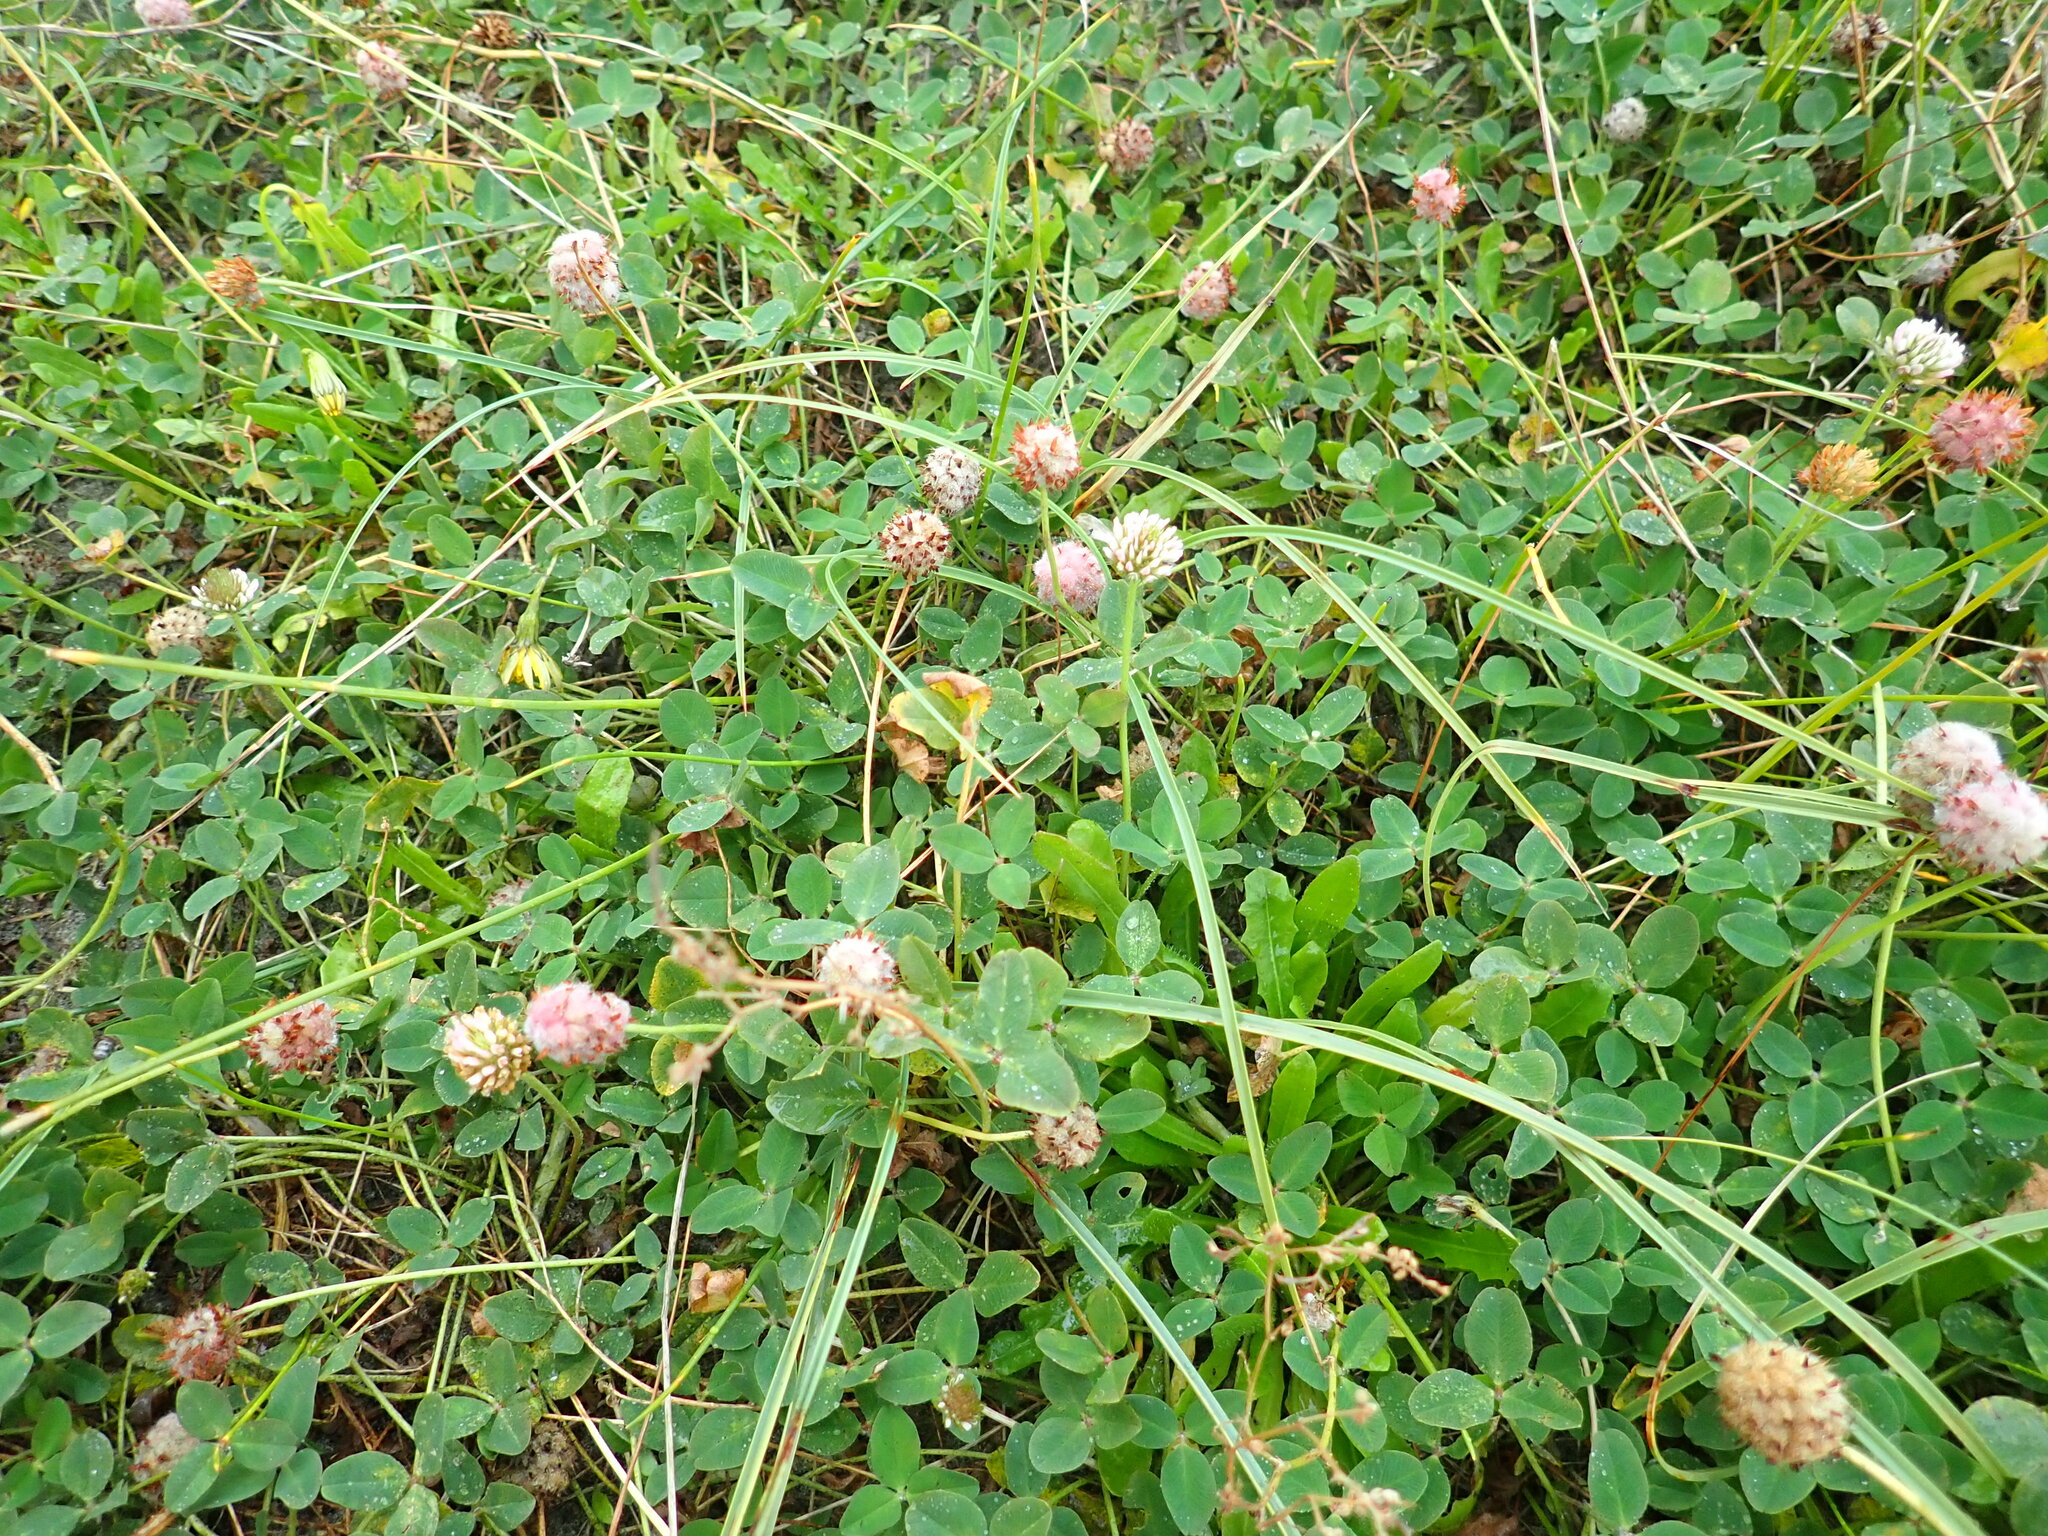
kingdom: Plantae
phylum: Tracheophyta
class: Magnoliopsida
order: Fabales
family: Fabaceae
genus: Trifolium
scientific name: Trifolium fragiferum
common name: Strawberry clover
